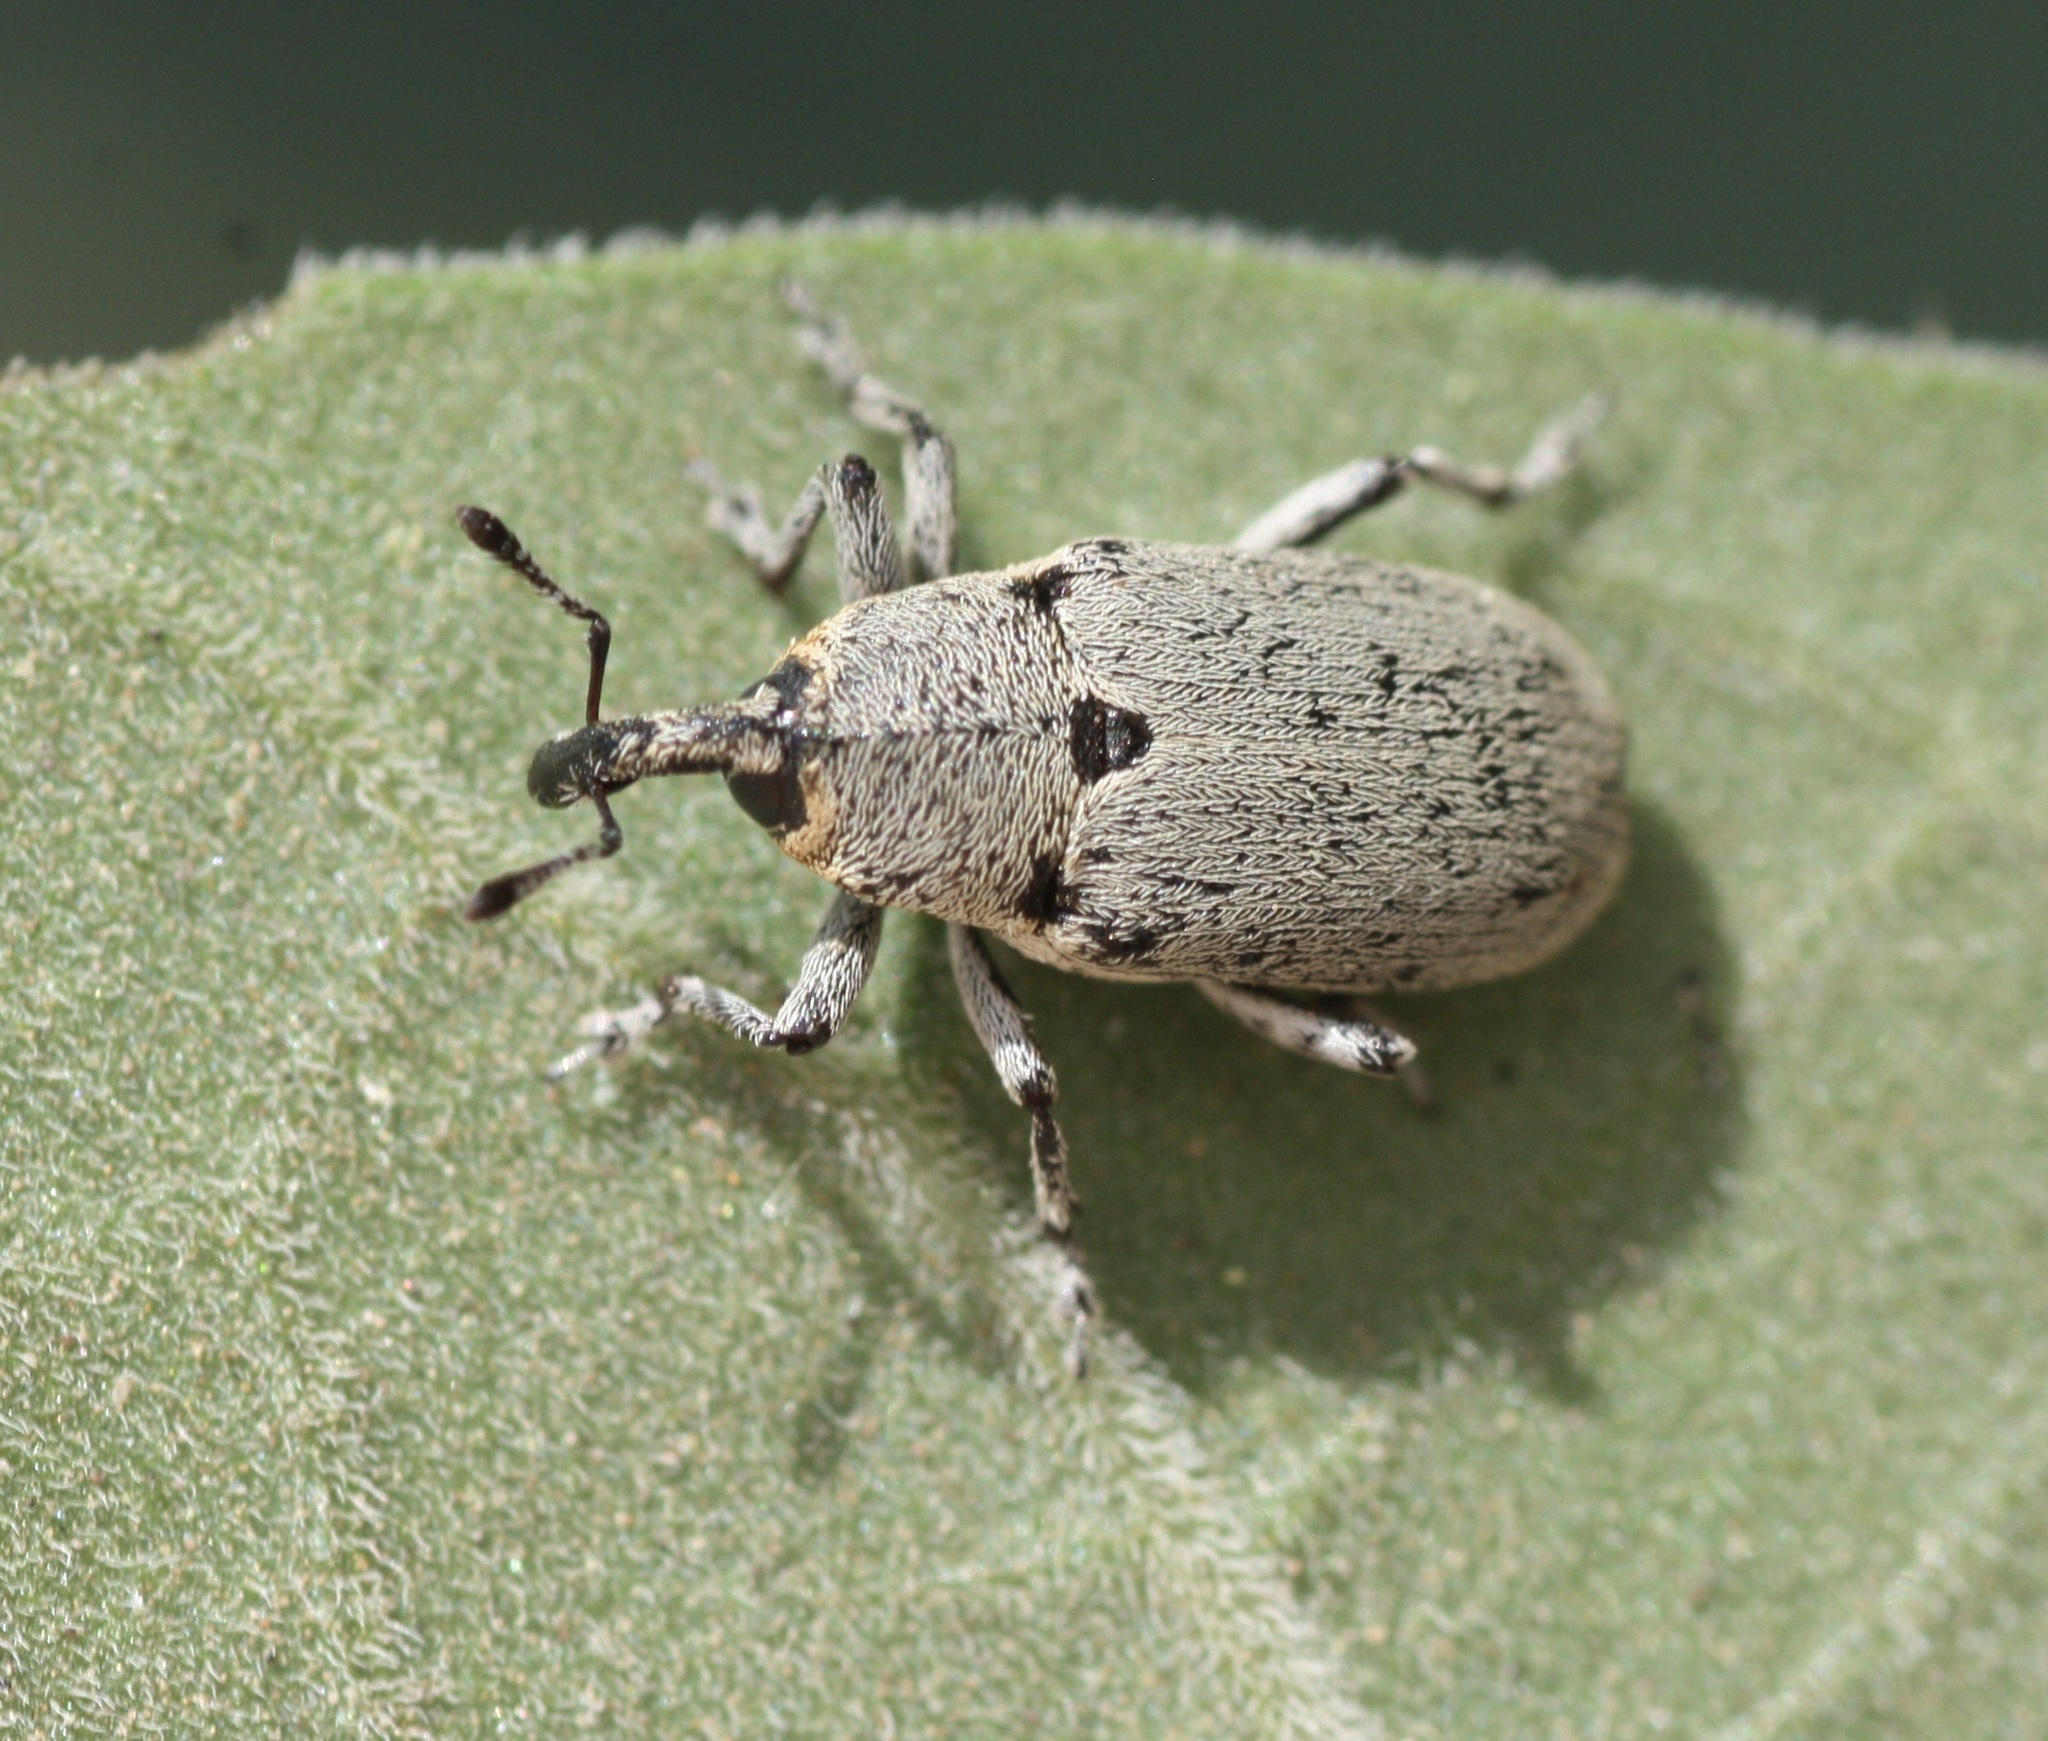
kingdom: Animalia
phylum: Arthropoda
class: Insecta
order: Coleoptera
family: Curculionidae
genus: Trichobaris
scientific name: Trichobaris mucorea
